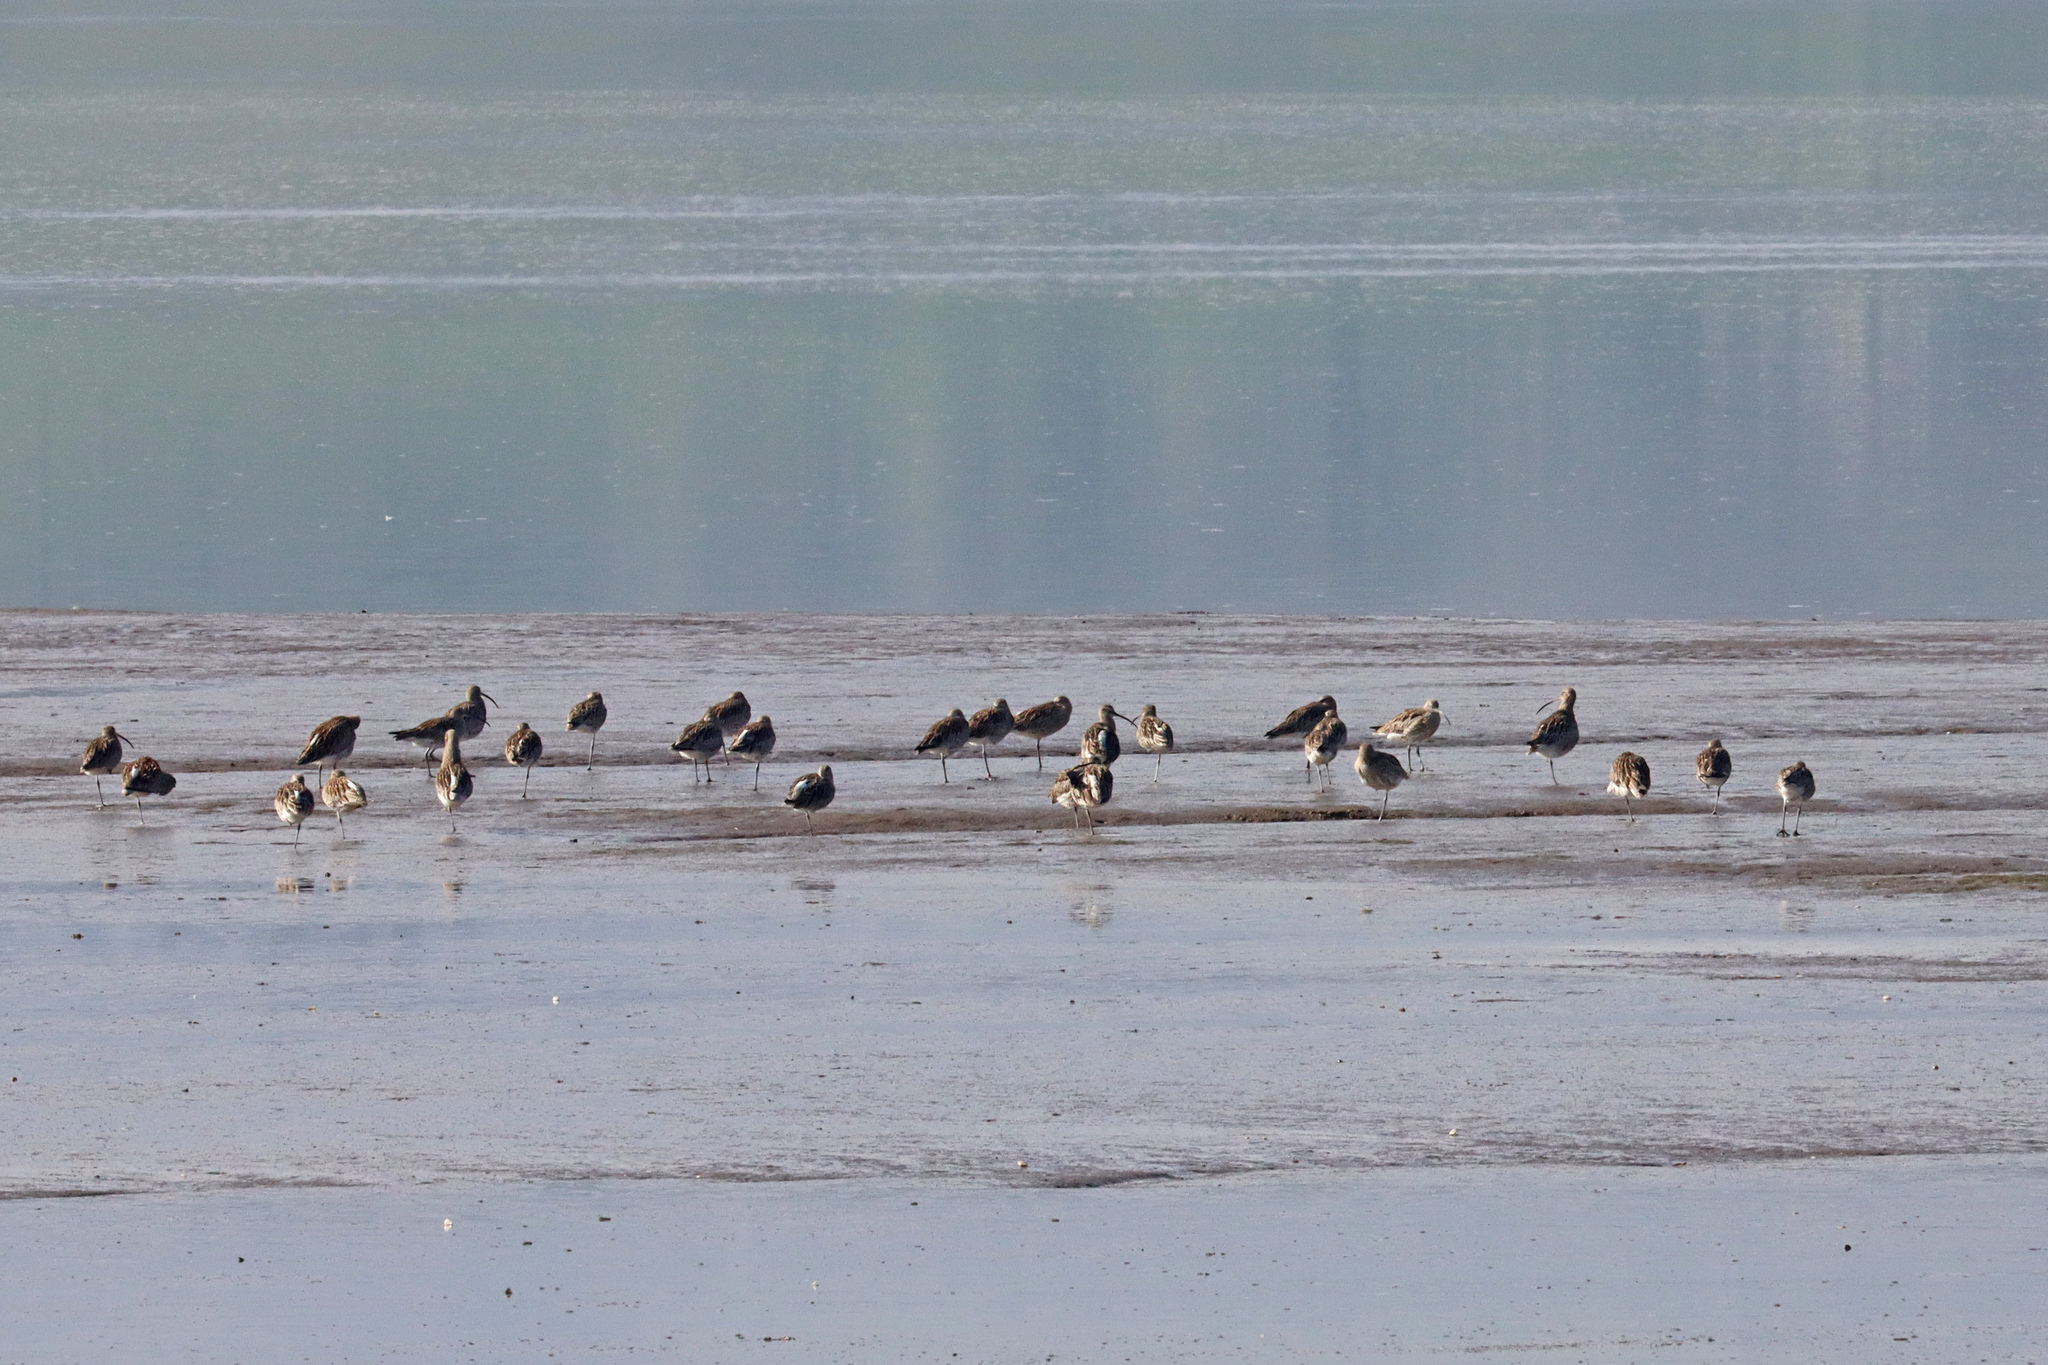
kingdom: Animalia
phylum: Chordata
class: Aves
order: Charadriiformes
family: Scolopacidae
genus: Numenius
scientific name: Numenius arquata
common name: Eurasian curlew
